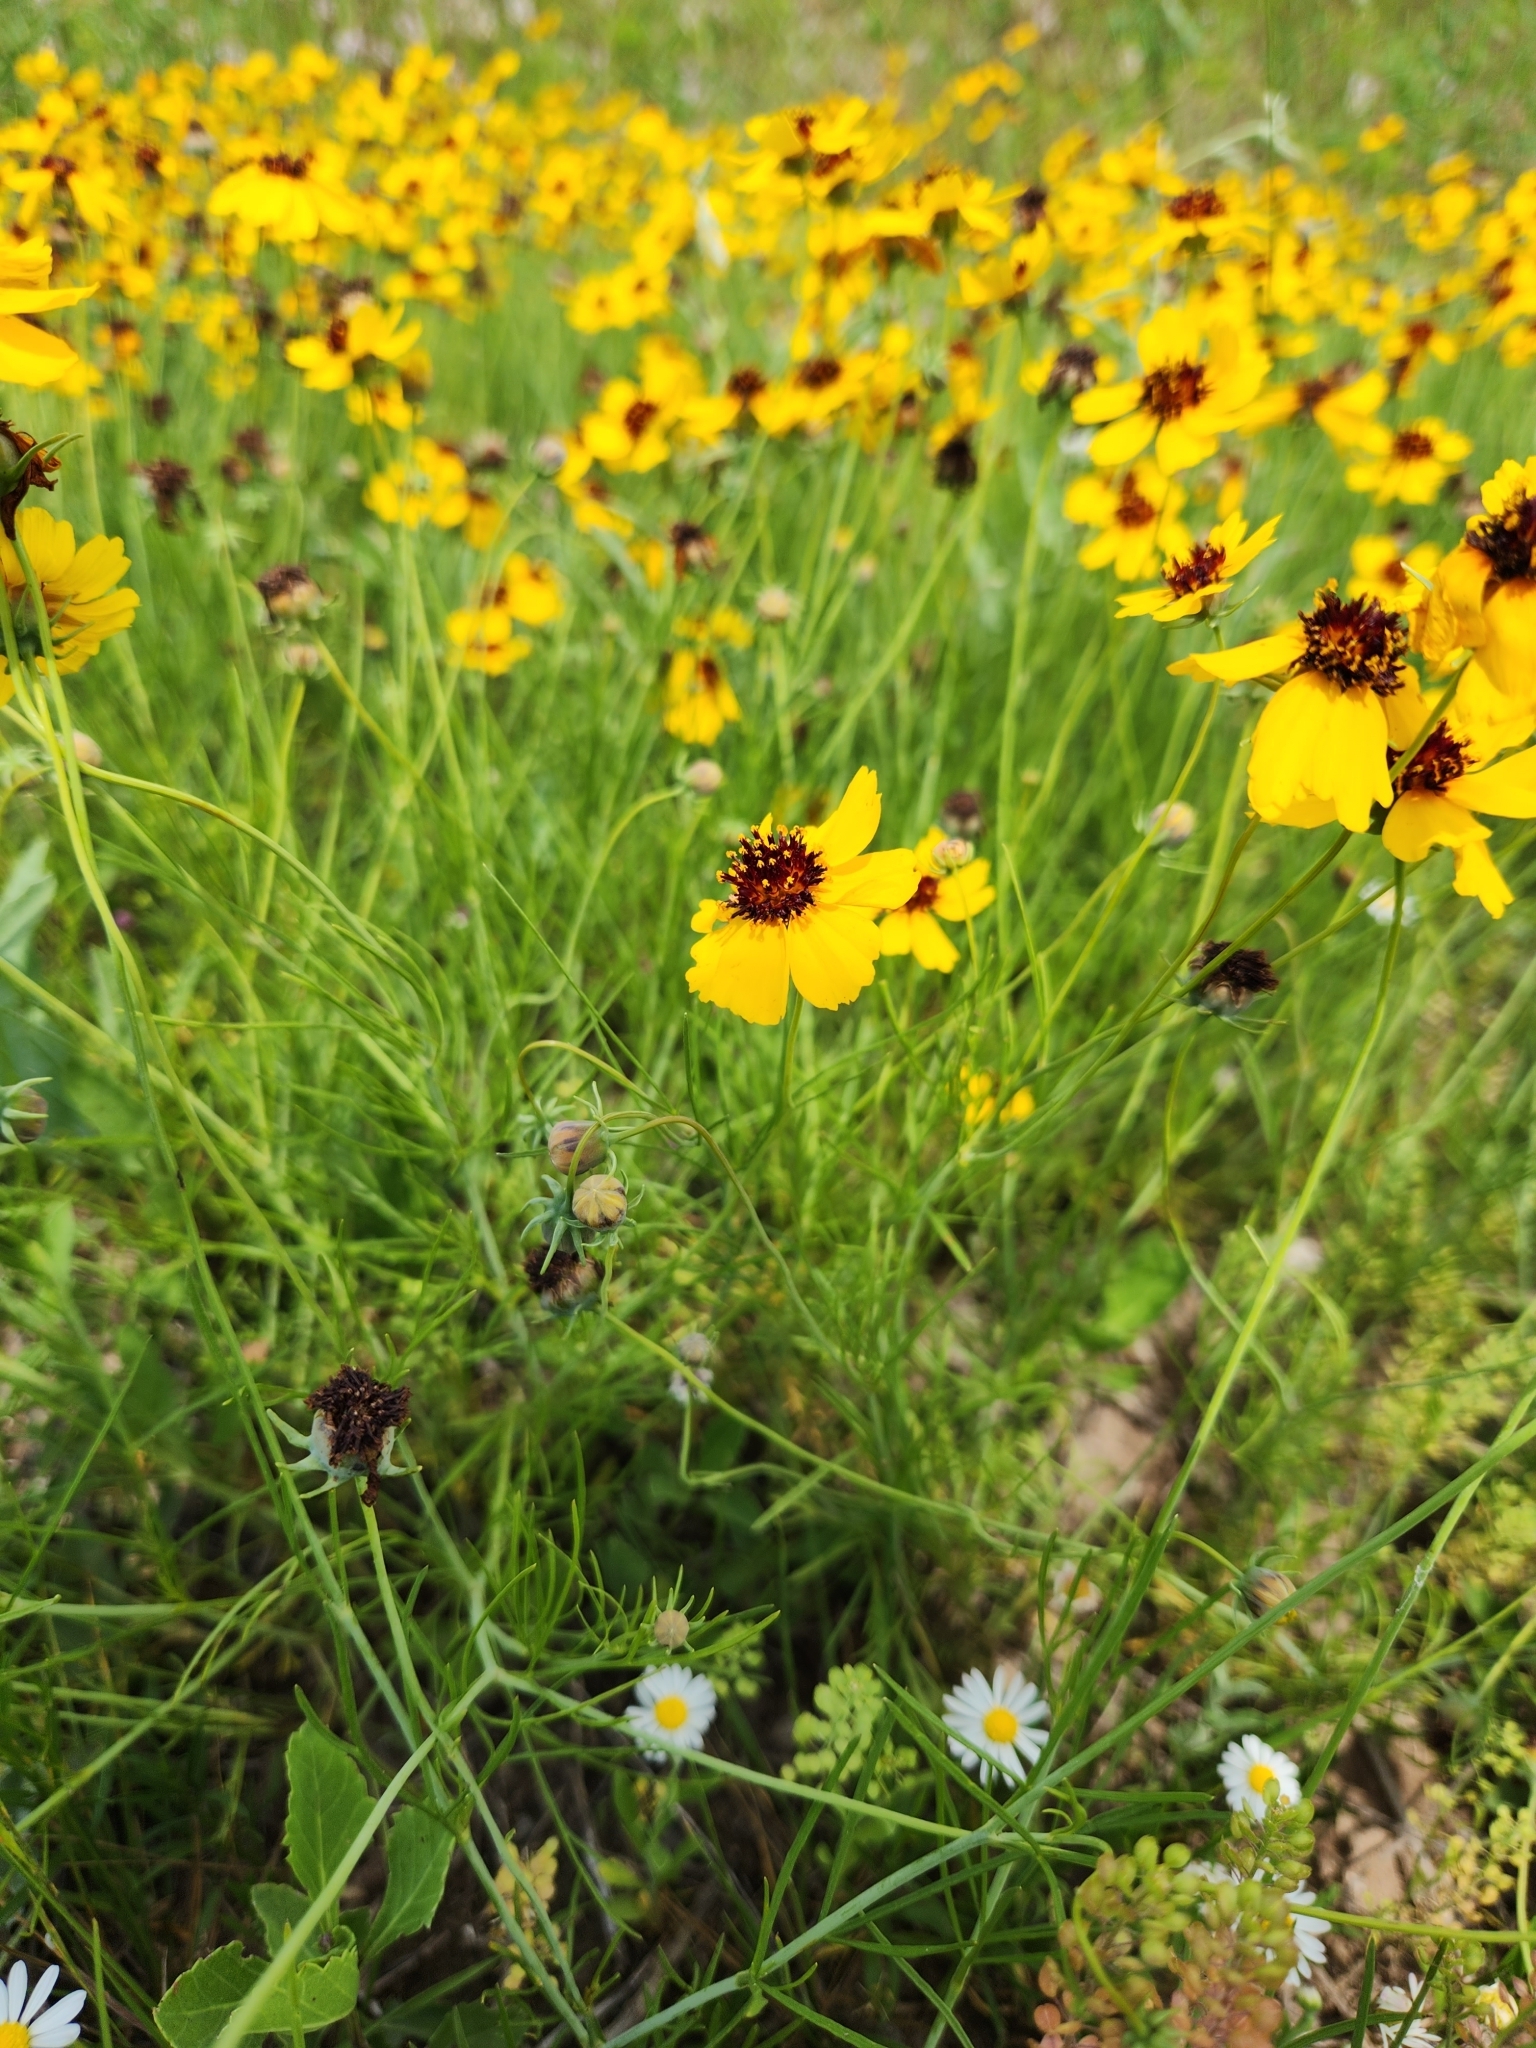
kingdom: Plantae
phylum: Tracheophyta
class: Magnoliopsida
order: Asterales
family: Asteraceae
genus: Thelesperma
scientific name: Thelesperma filifolium
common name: Stiff greenthread
